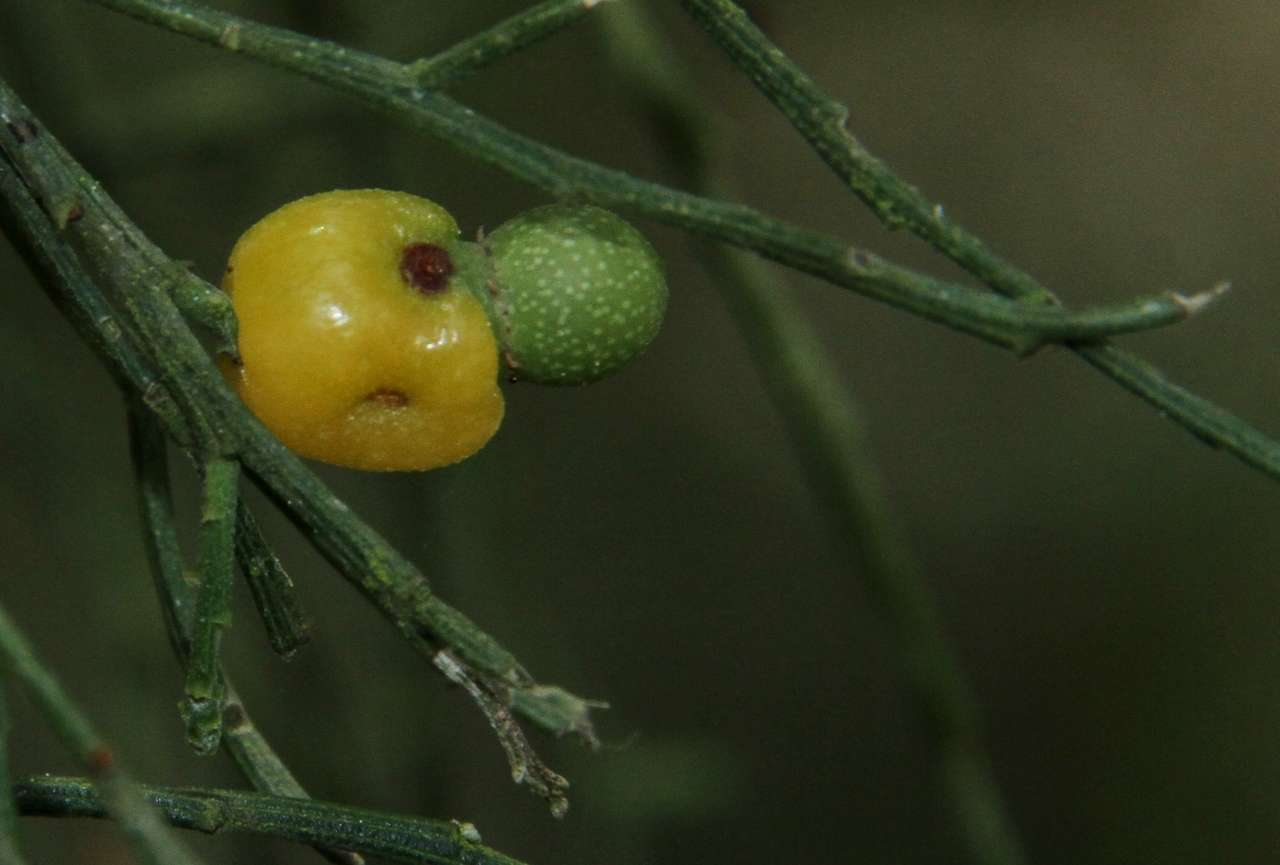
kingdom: Plantae
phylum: Tracheophyta
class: Magnoliopsida
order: Santalales
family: Santalaceae
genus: Exocarpos
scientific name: Exocarpos cupressiformis
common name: Cherry ballart
